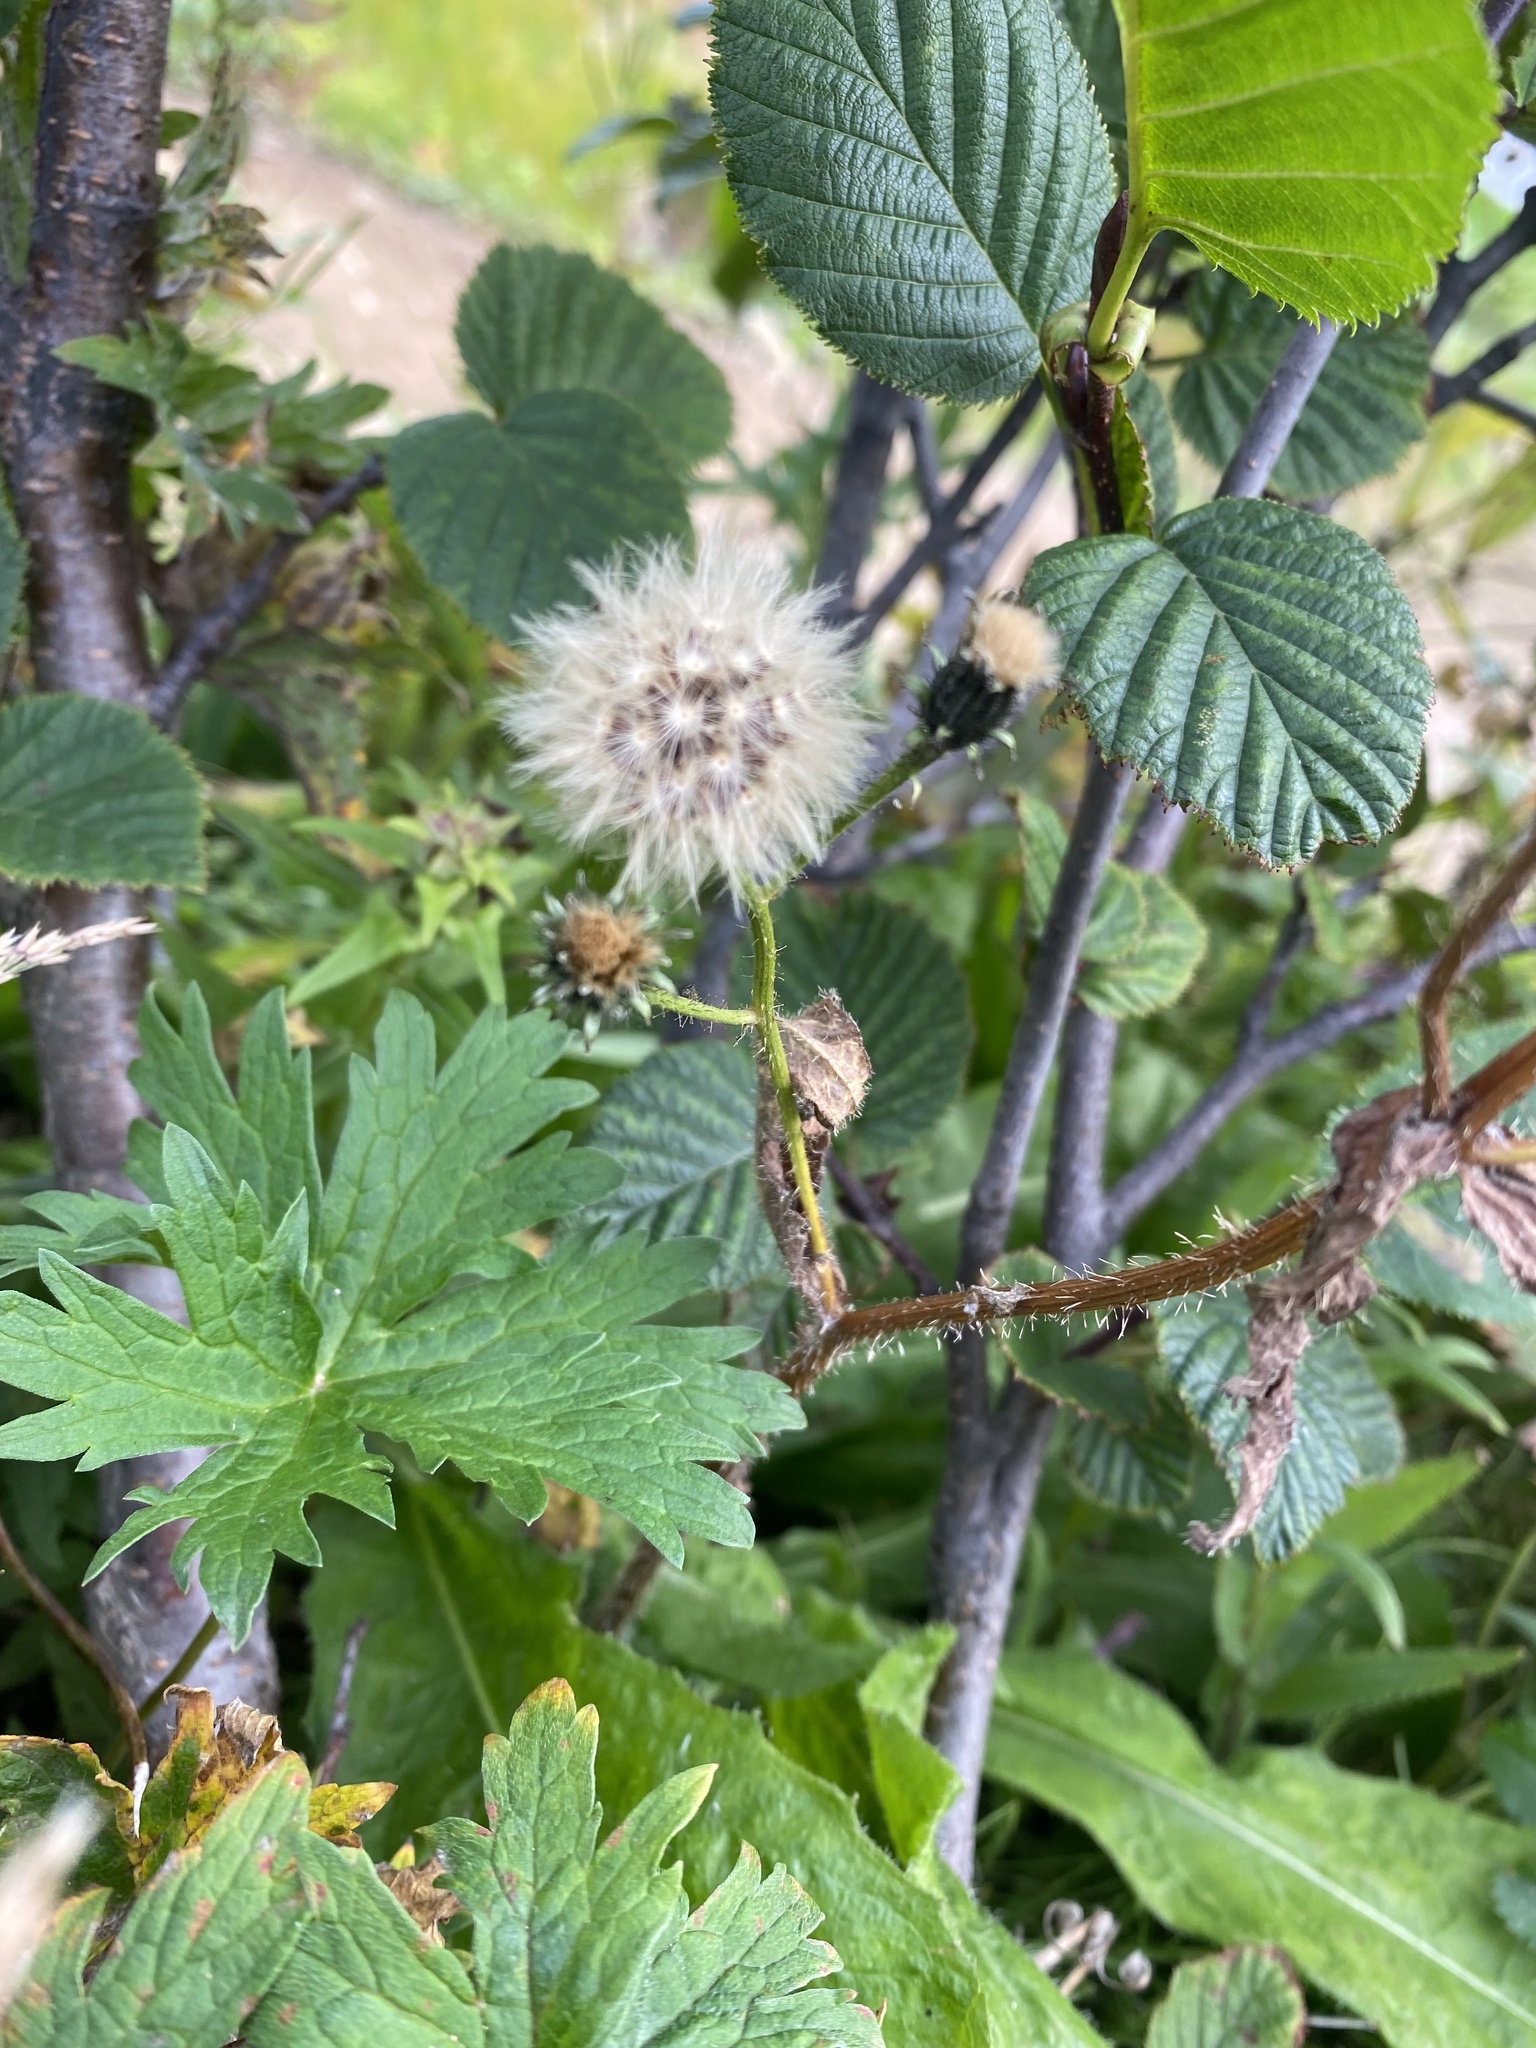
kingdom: Plantae
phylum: Tracheophyta
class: Magnoliopsida
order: Asterales
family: Asteraceae
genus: Picris
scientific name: Picris japonica
